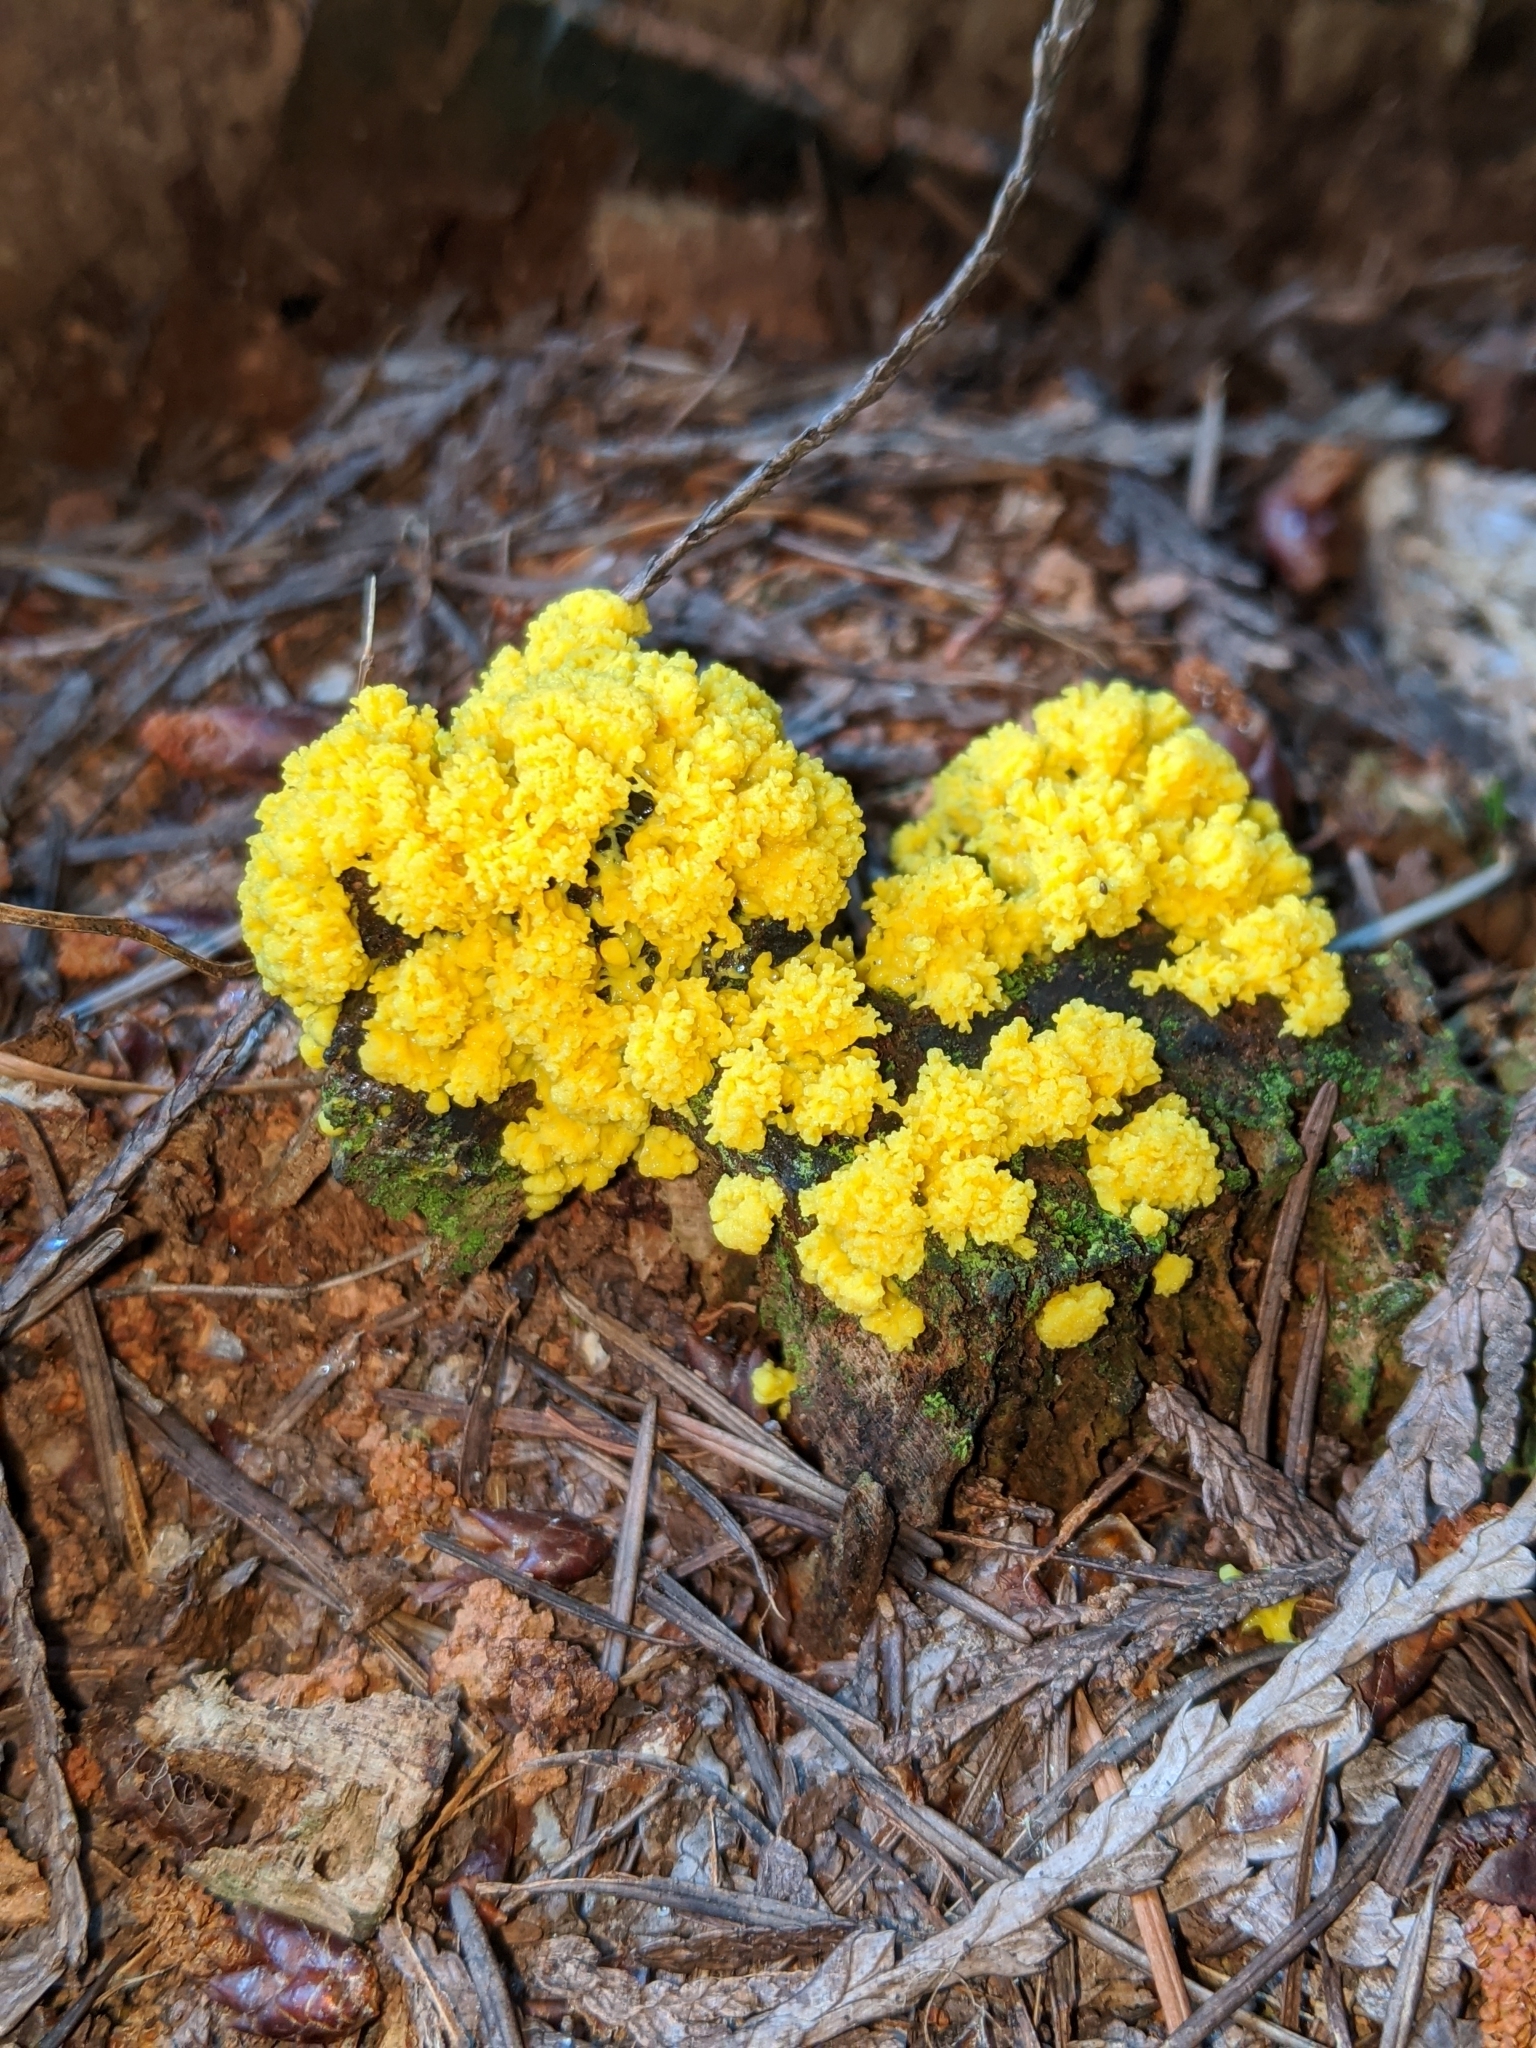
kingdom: Protozoa
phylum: Mycetozoa
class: Myxomycetes
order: Physarales
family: Physaraceae
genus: Fuligo
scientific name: Fuligo septica
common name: Dog vomit slime mold
